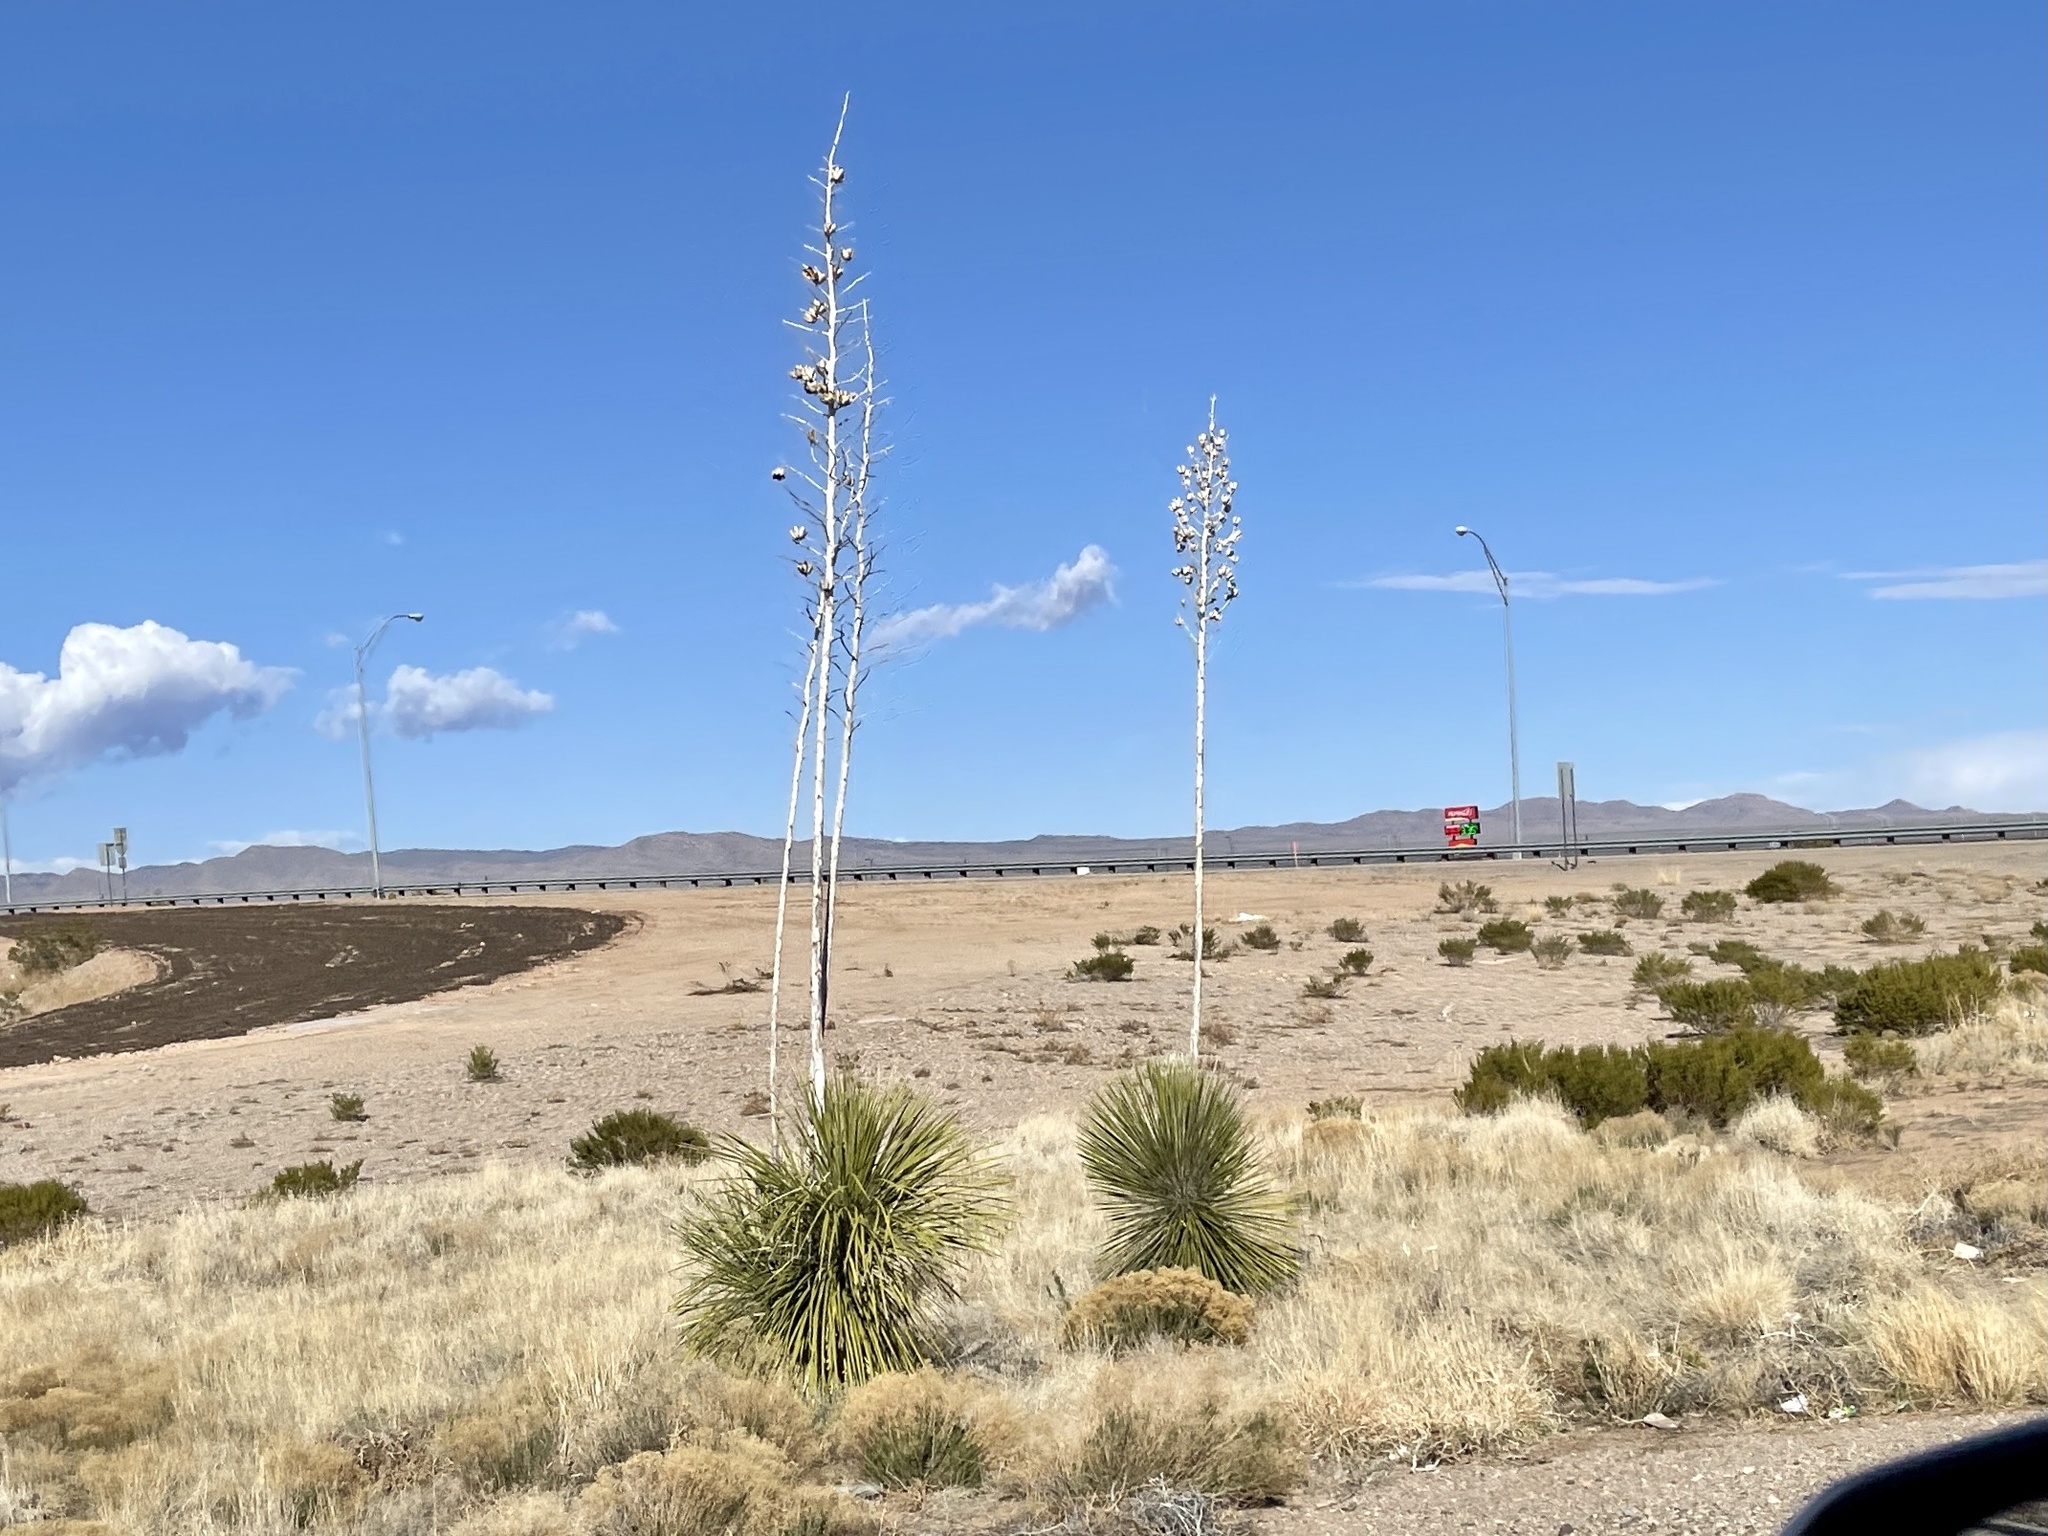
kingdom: Plantae
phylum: Tracheophyta
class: Liliopsida
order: Asparagales
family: Asparagaceae
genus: Yucca
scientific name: Yucca elata
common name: Palmella
